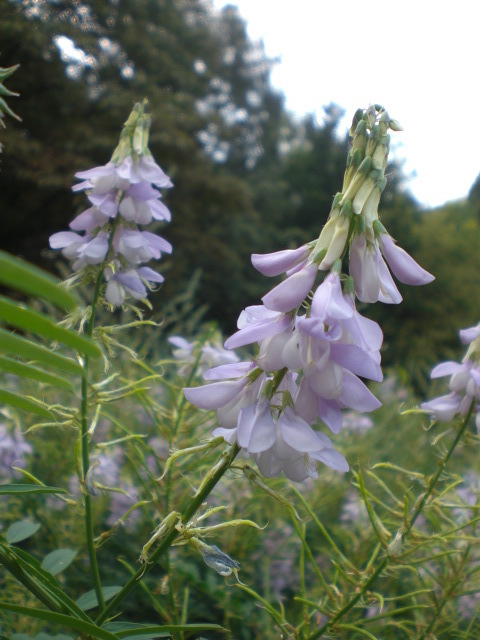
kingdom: Plantae
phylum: Tracheophyta
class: Magnoliopsida
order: Fabales
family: Fabaceae
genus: Galega
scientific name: Galega officinalis
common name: Goat's-rue
